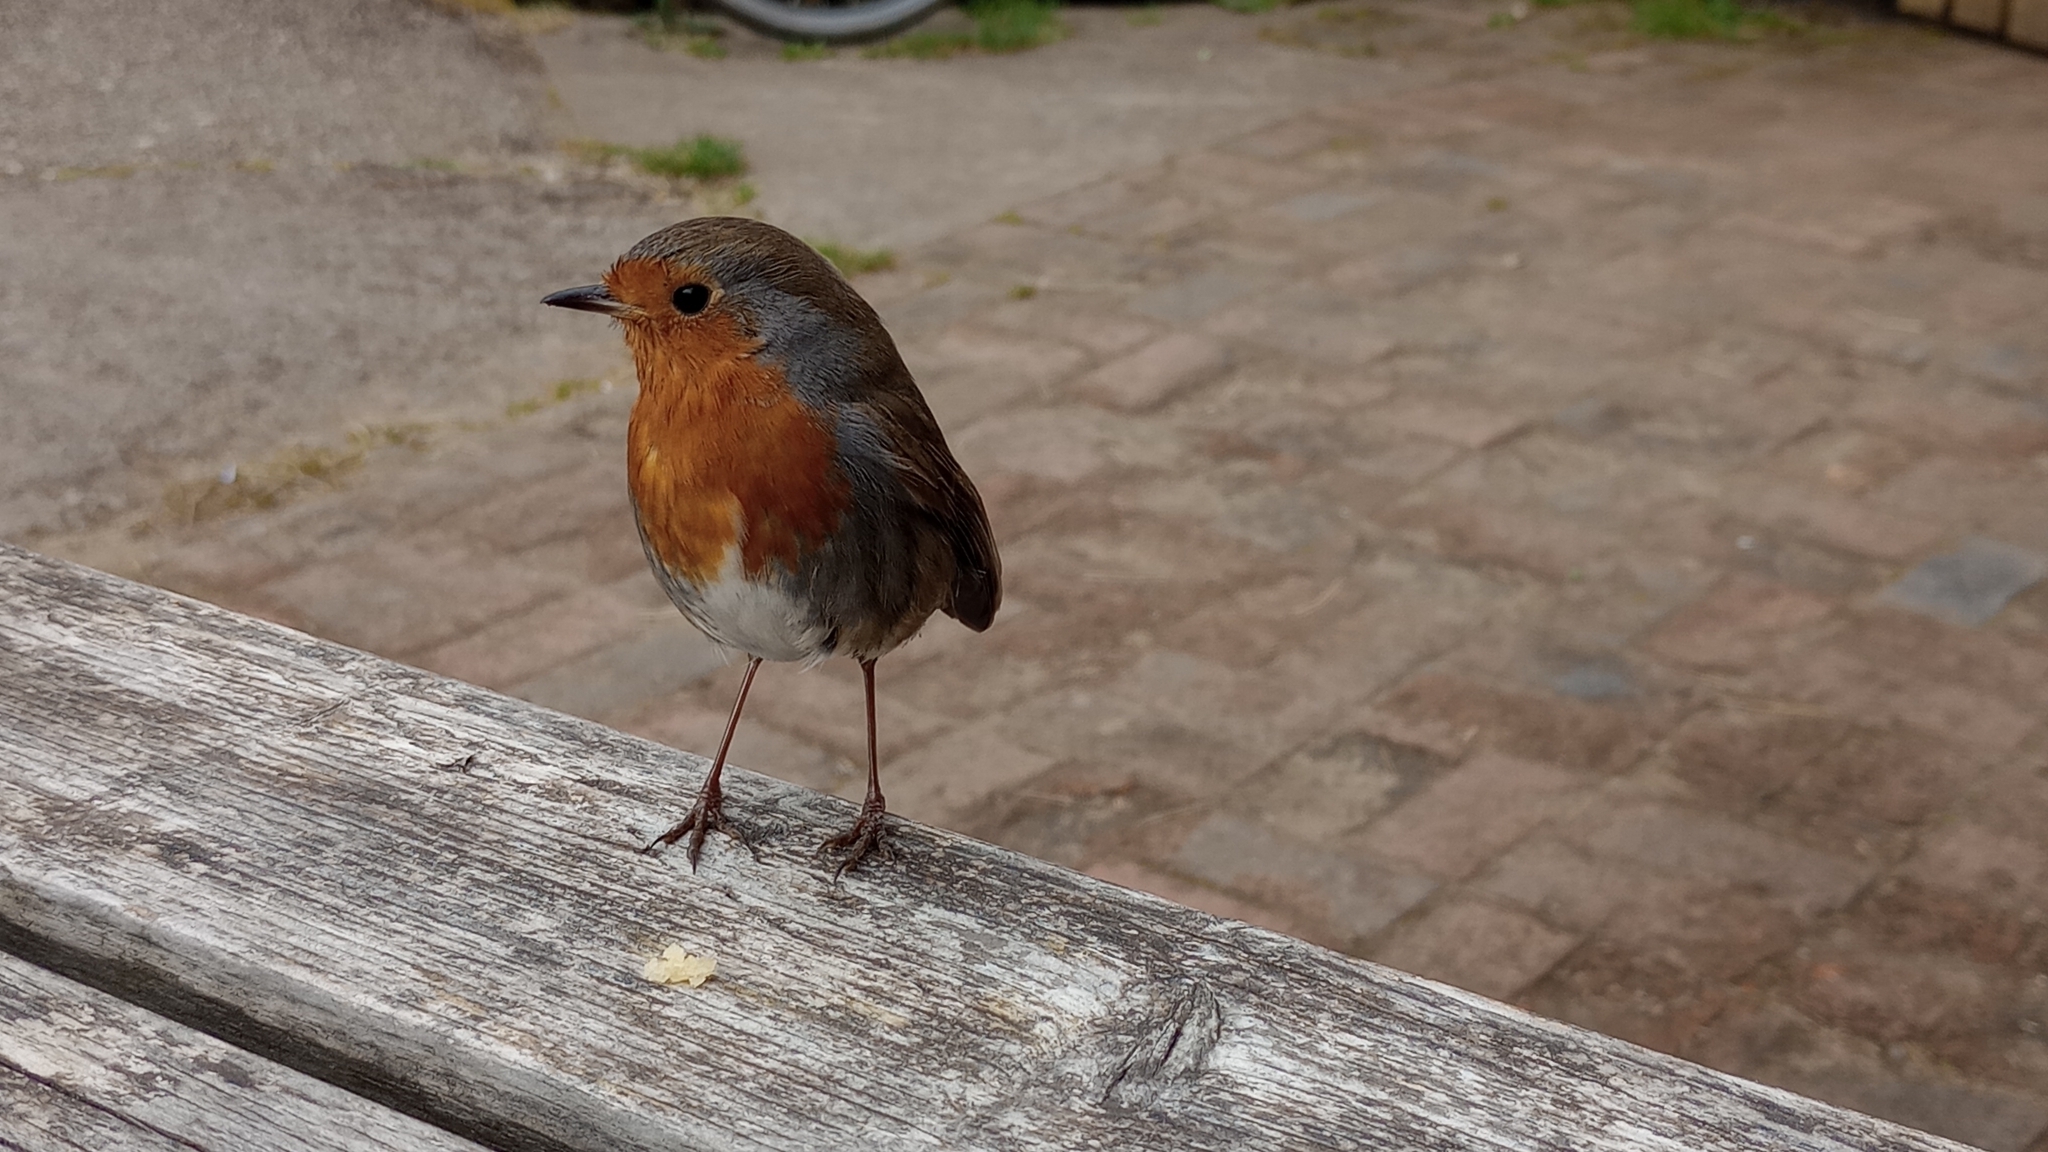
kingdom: Animalia
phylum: Chordata
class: Aves
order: Passeriformes
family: Muscicapidae
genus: Erithacus
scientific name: Erithacus rubecula
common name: European robin
